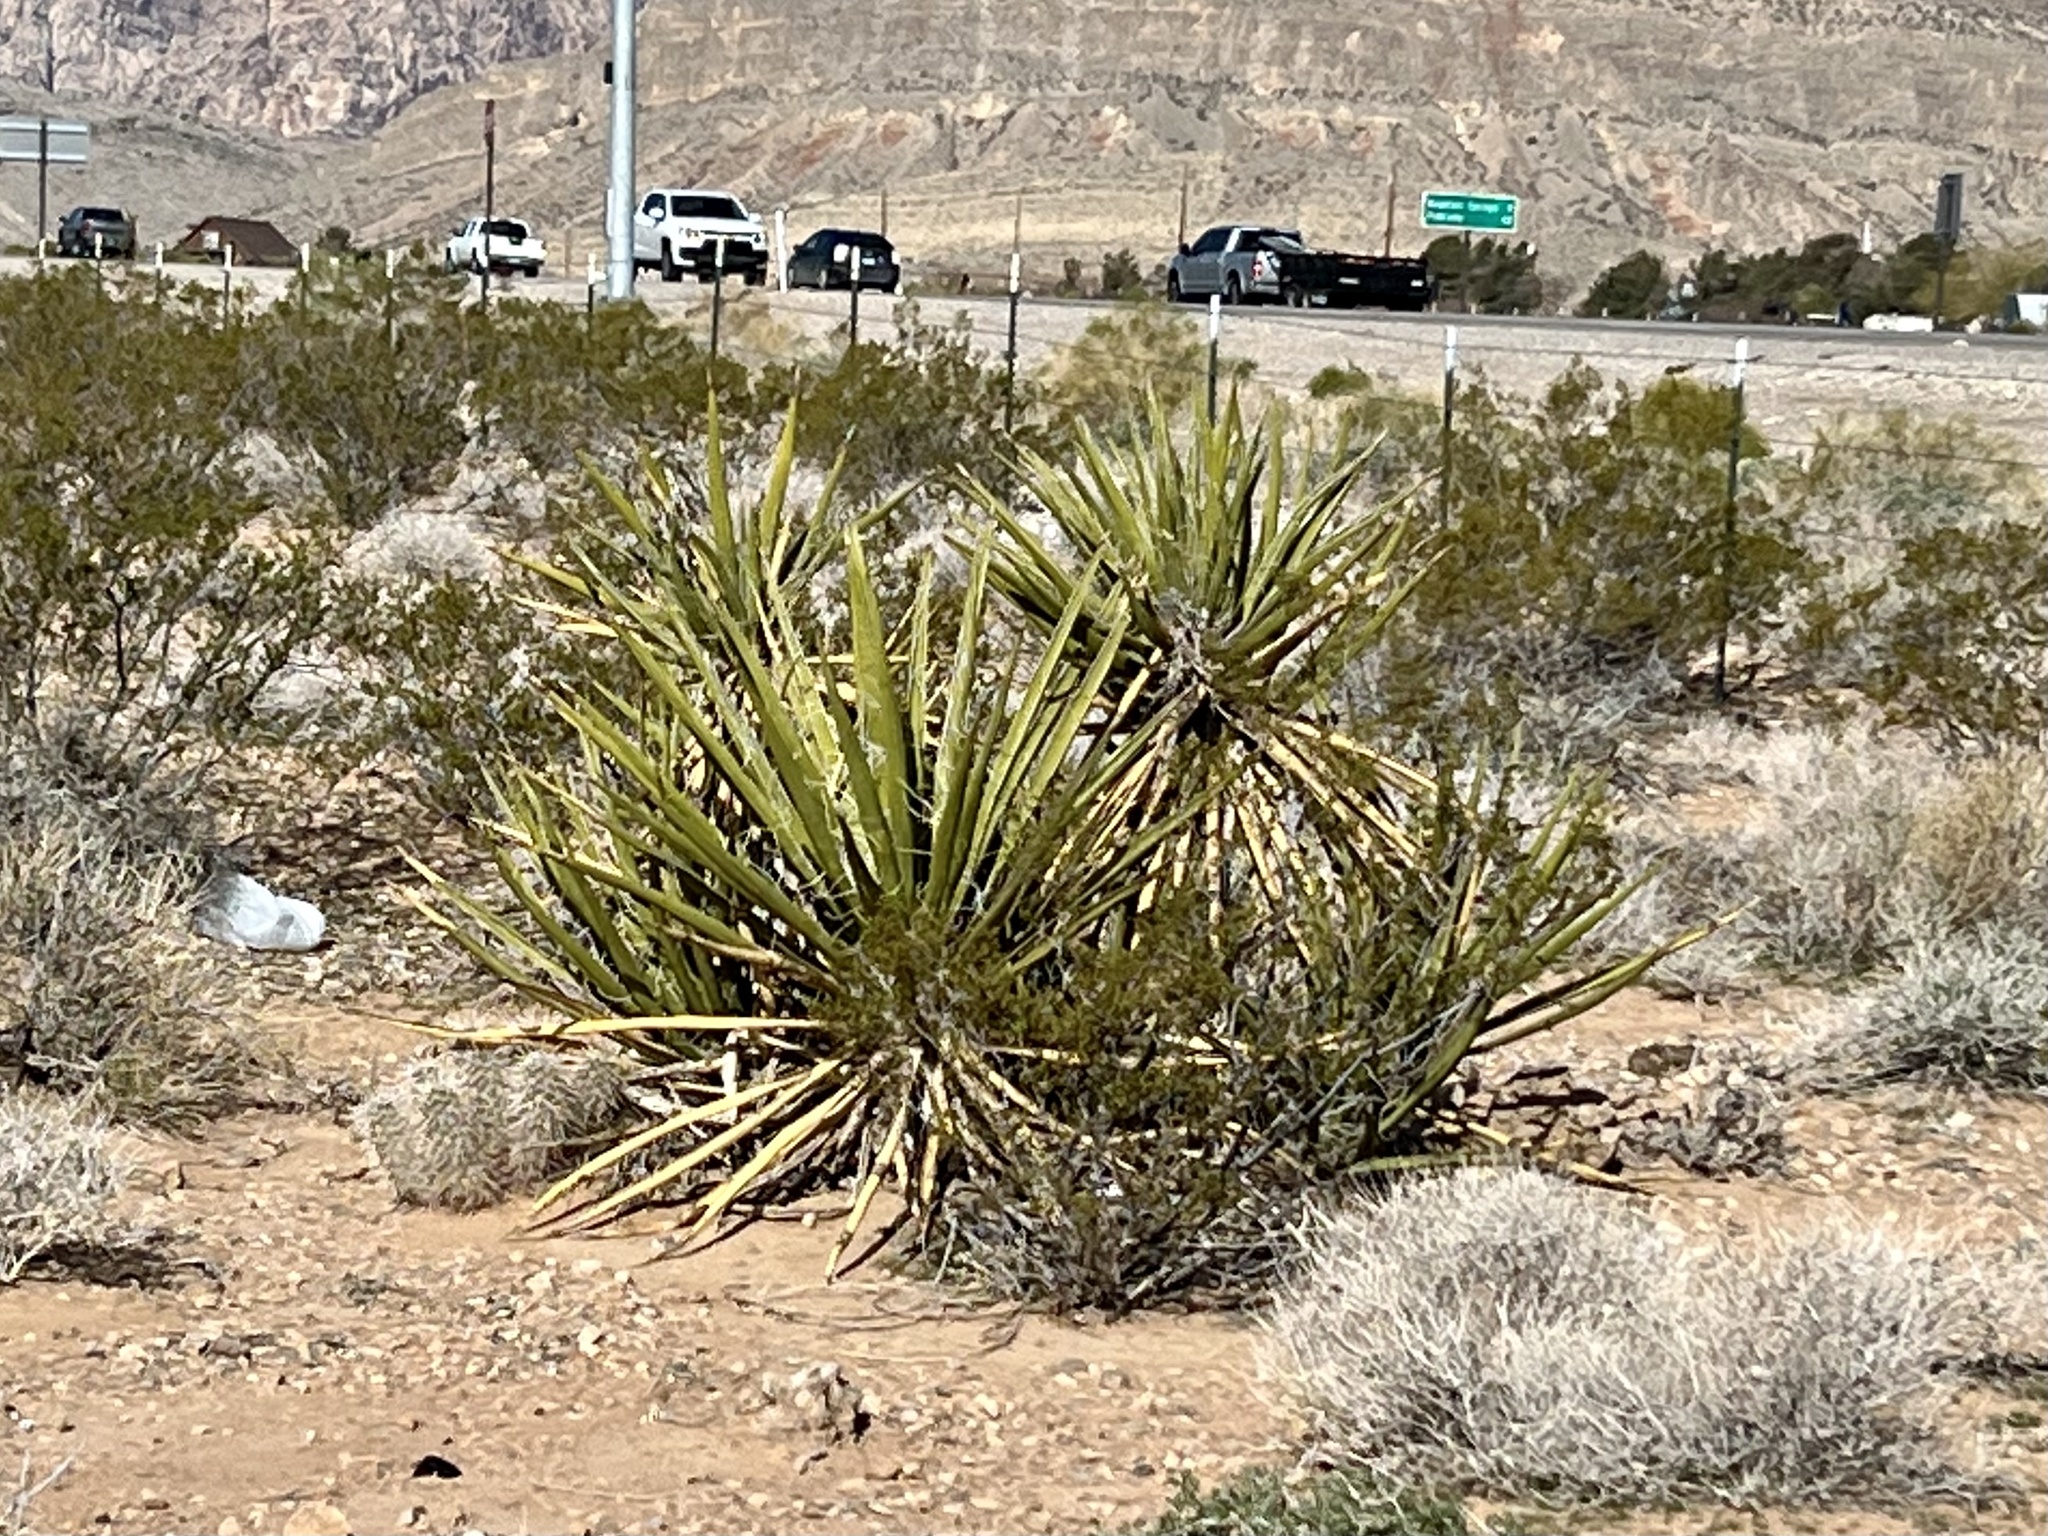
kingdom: Plantae
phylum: Tracheophyta
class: Liliopsida
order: Asparagales
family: Asparagaceae
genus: Yucca
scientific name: Yucca schidigera
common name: Mojave yucca
